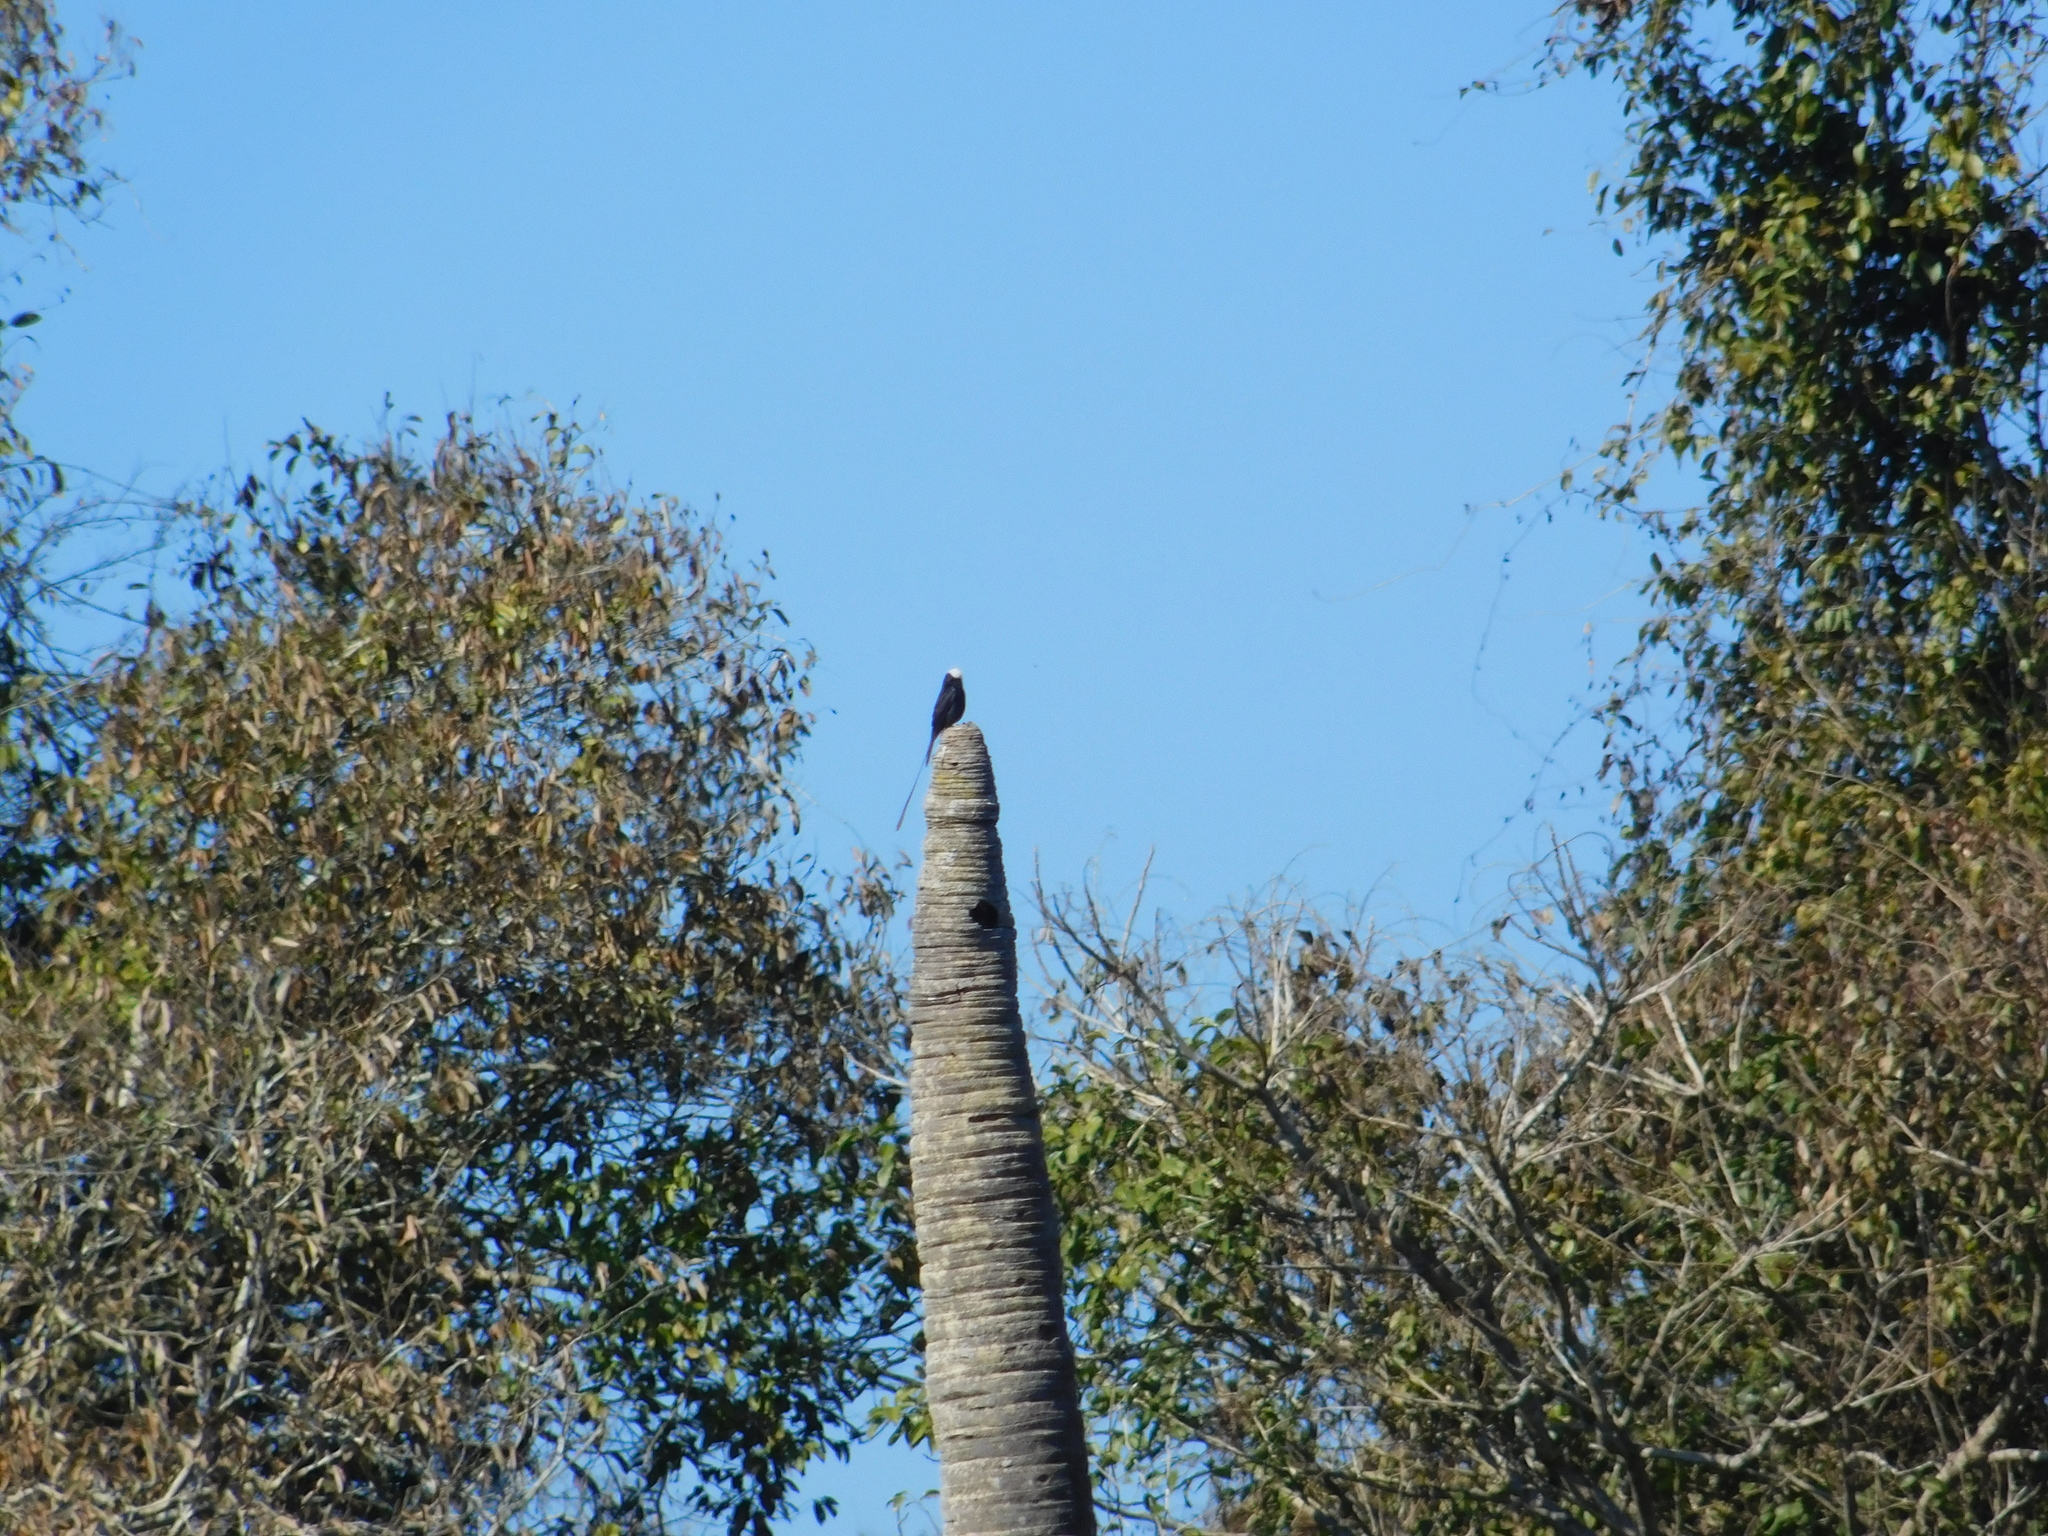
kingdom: Animalia
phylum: Chordata
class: Aves
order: Passeriformes
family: Tyrannidae
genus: Colonia
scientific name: Colonia colonus
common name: Long-tailed tyrant
